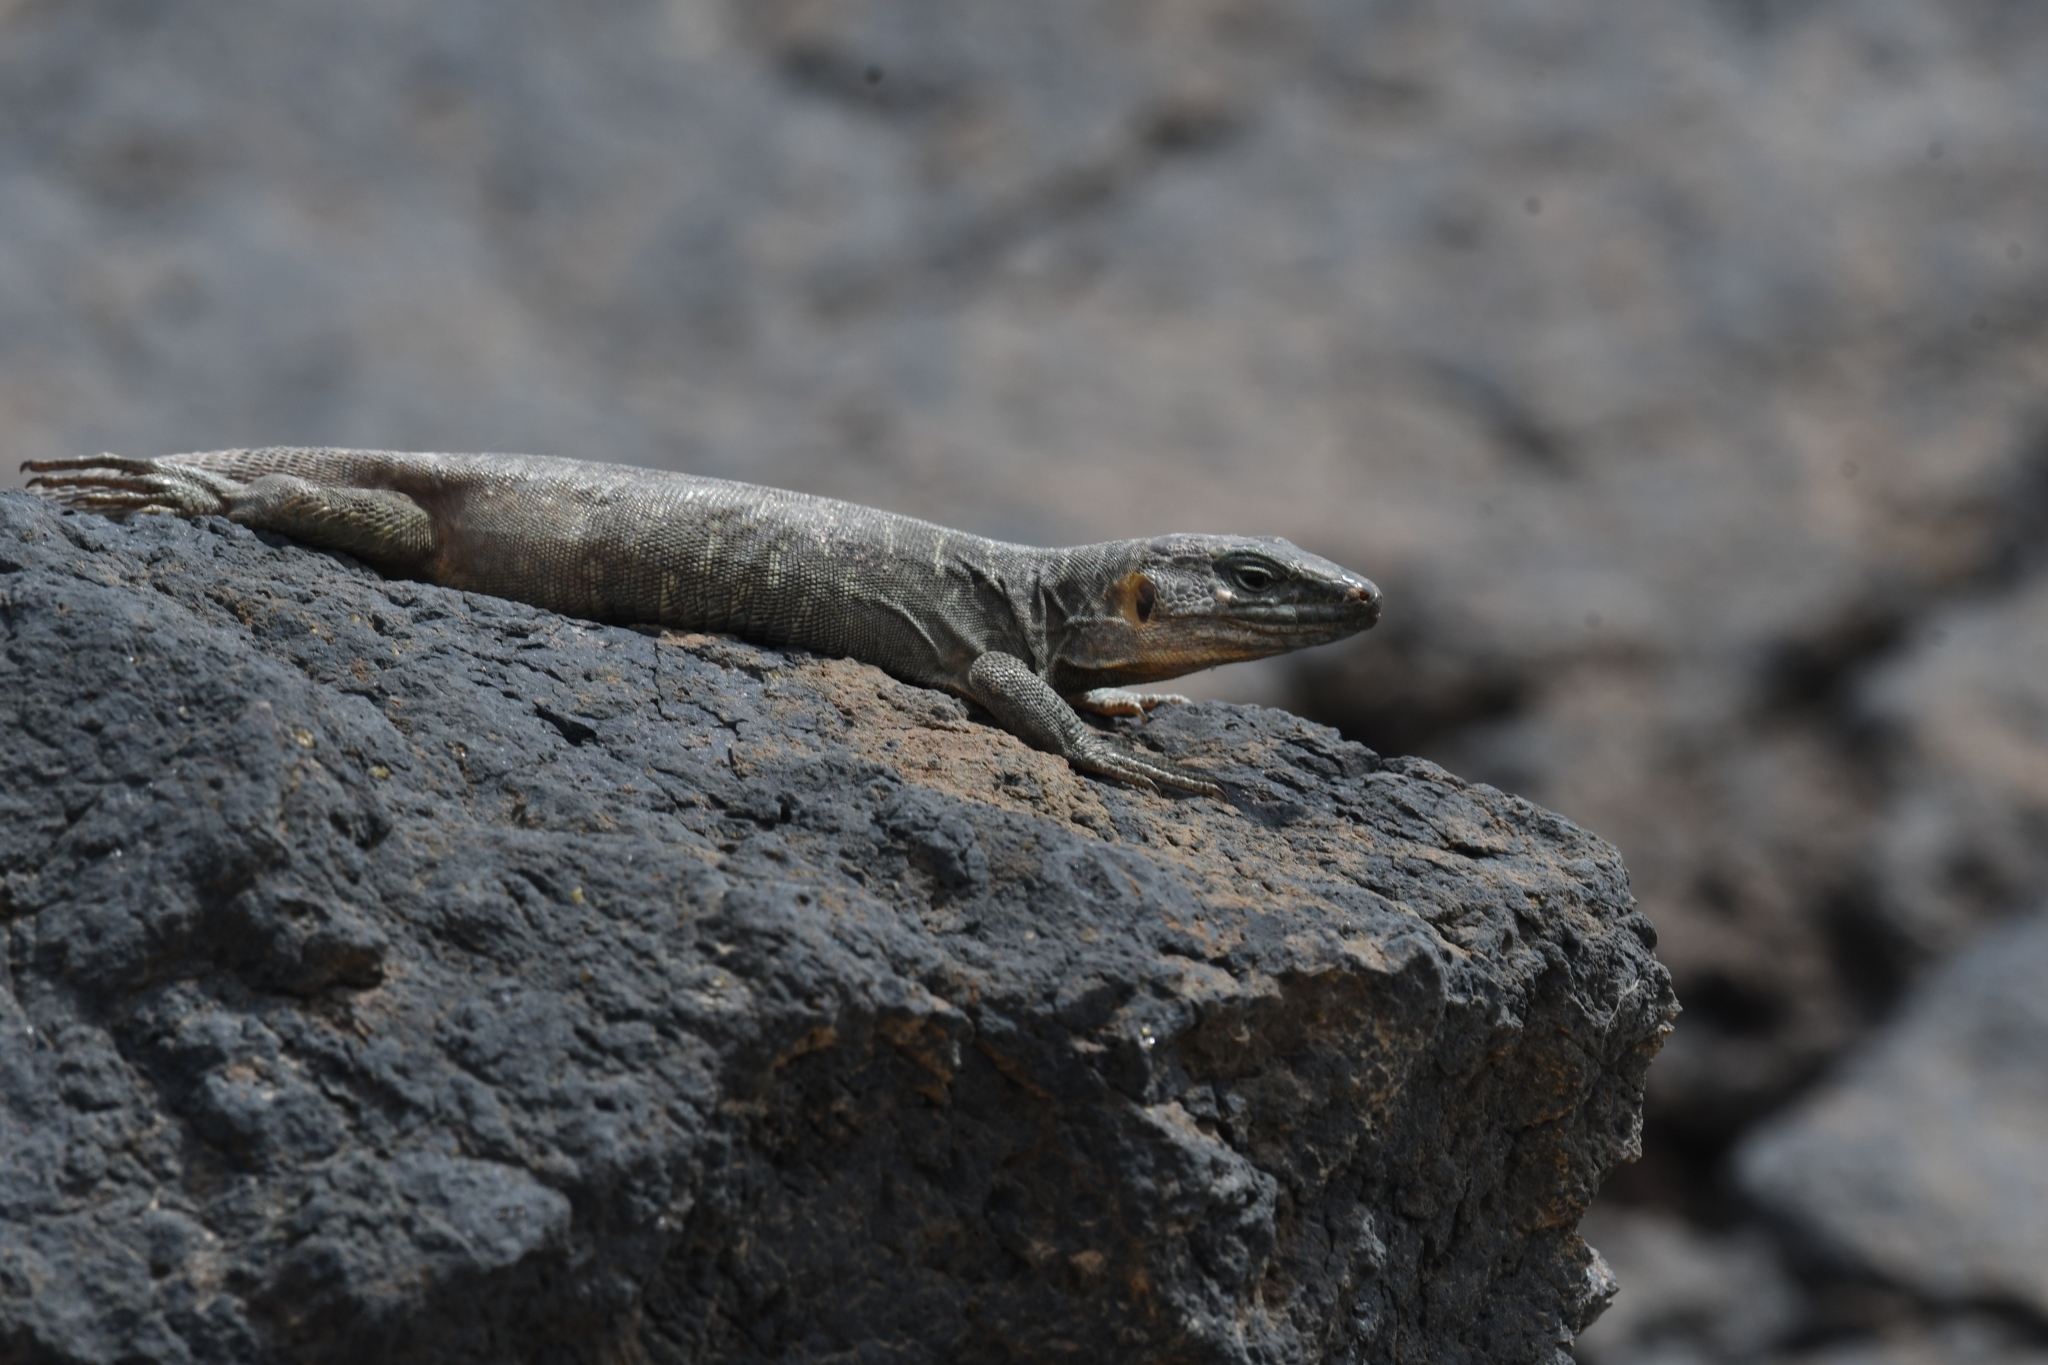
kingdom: Animalia
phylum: Chordata
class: Squamata
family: Lacertidae
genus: Gallotia
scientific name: Gallotia stehlini
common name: Gran canaria giant lizard
